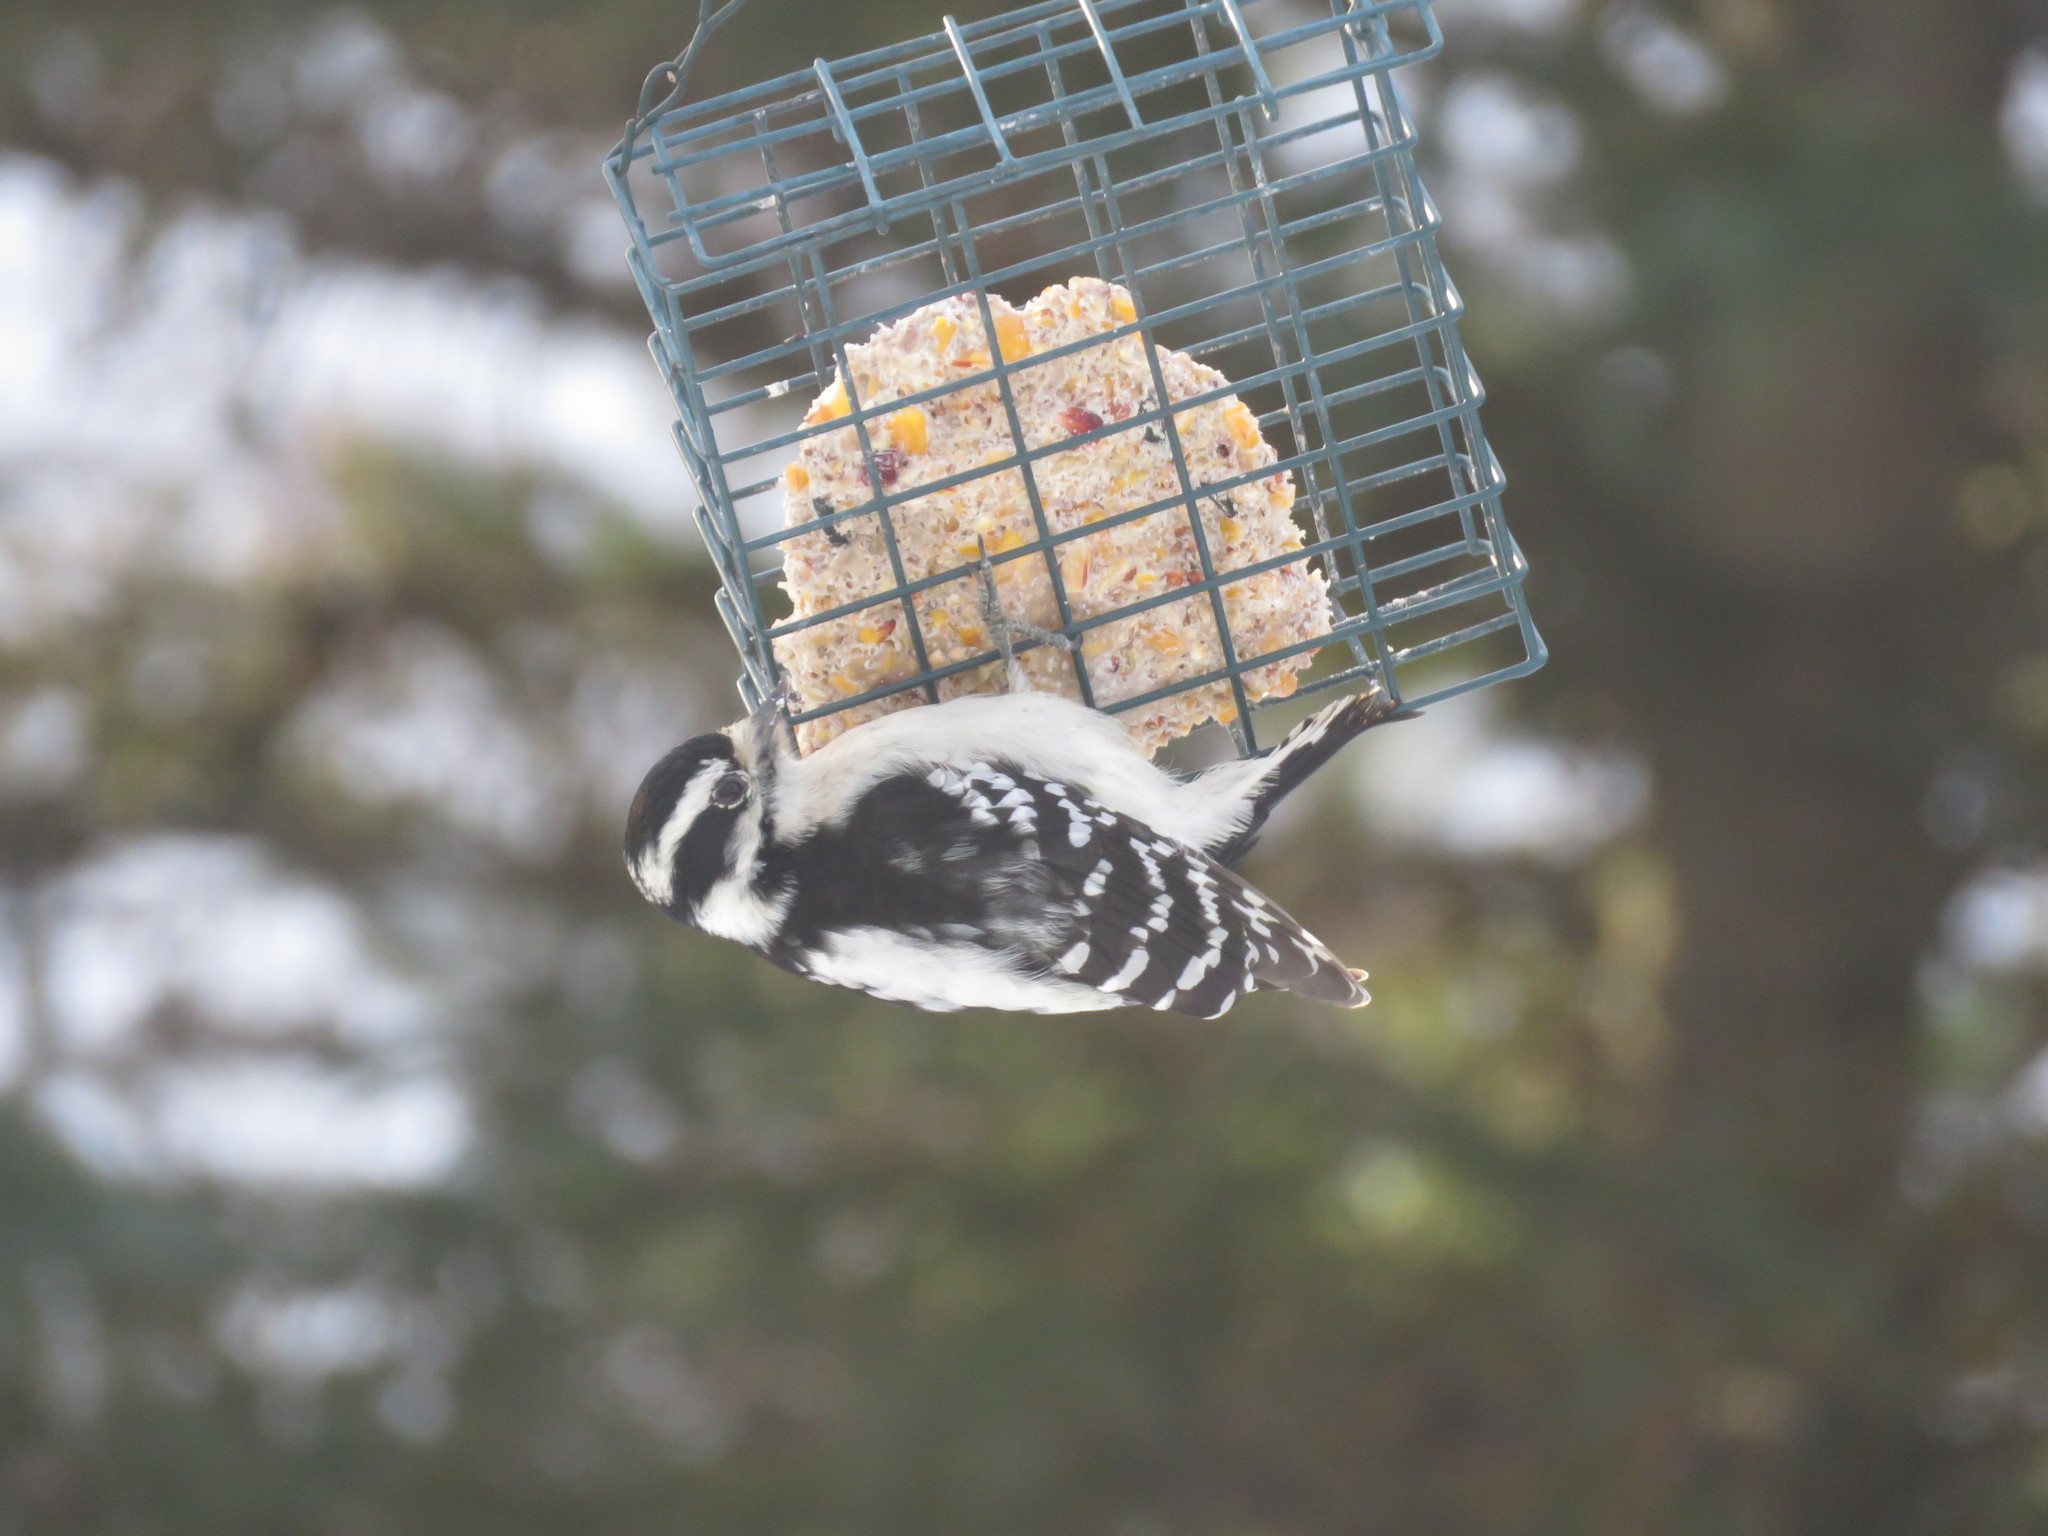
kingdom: Animalia
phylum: Chordata
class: Aves
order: Piciformes
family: Picidae
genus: Dryobates
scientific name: Dryobates pubescens
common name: Downy woodpecker
